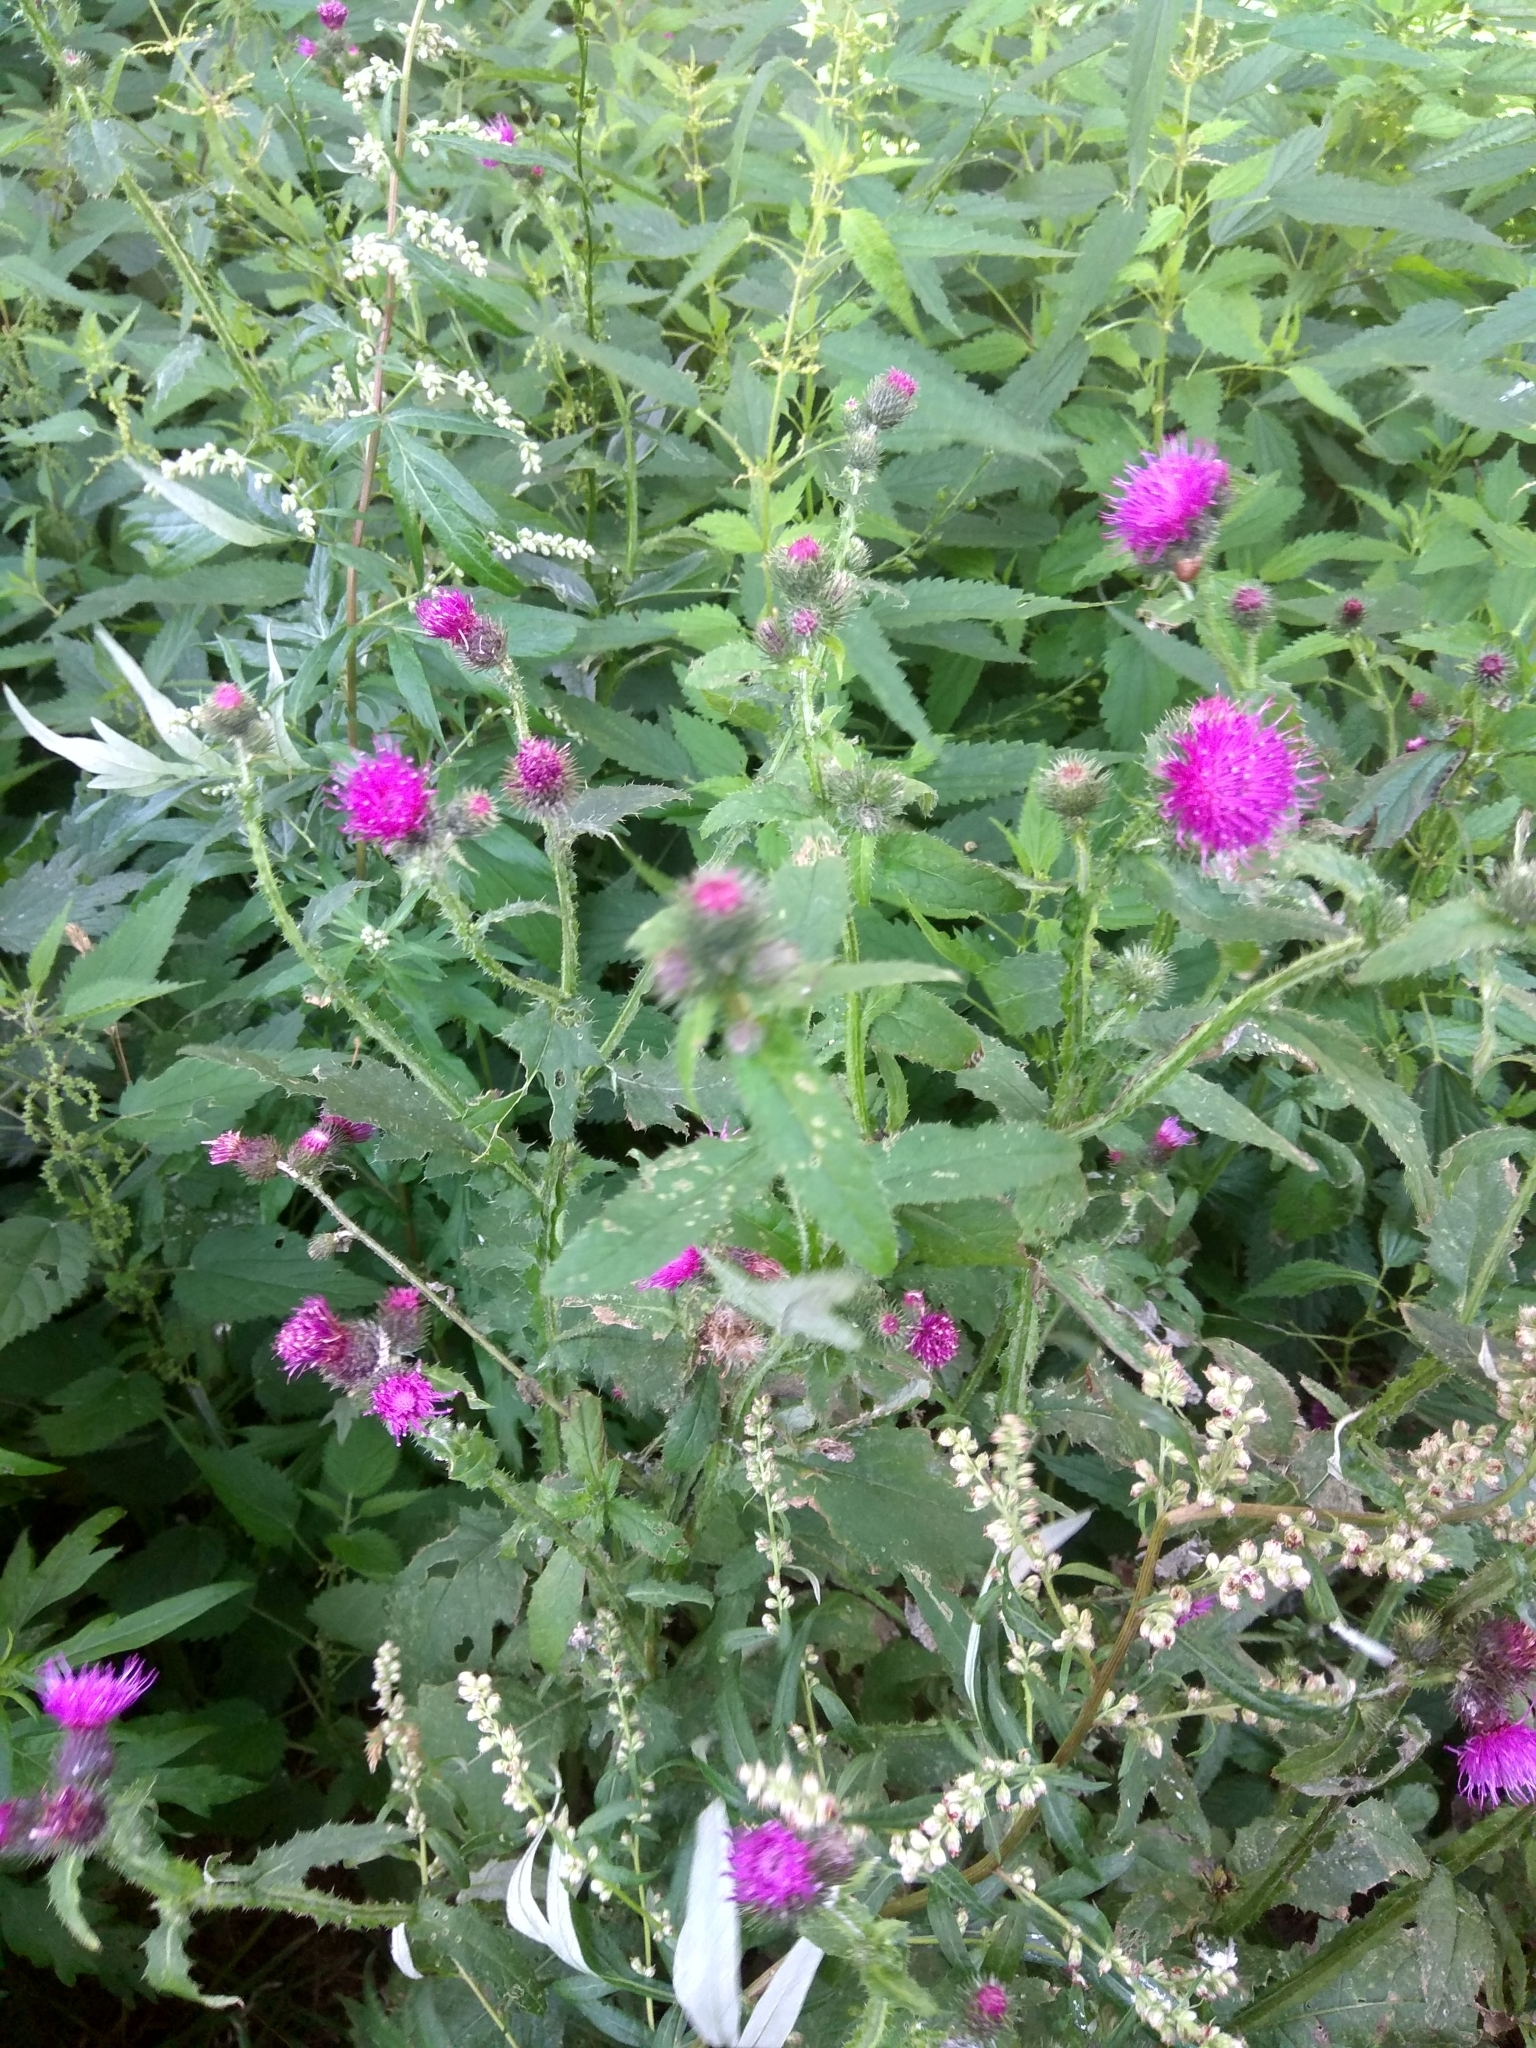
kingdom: Plantae
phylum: Tracheophyta
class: Magnoliopsida
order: Asterales
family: Asteraceae
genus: Carduus
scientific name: Carduus crispus
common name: Welted thistle
